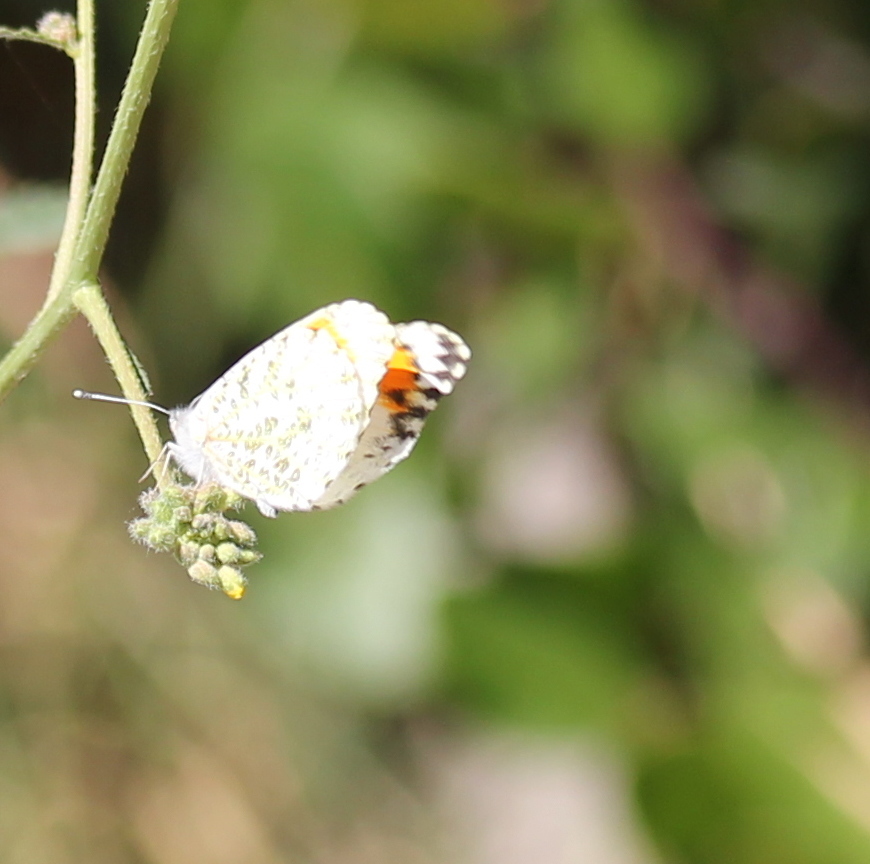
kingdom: Animalia
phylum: Arthropoda
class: Insecta
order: Lepidoptera
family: Pieridae
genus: Anthocharis
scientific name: Anthocharis sara
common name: Sara's orangetip
